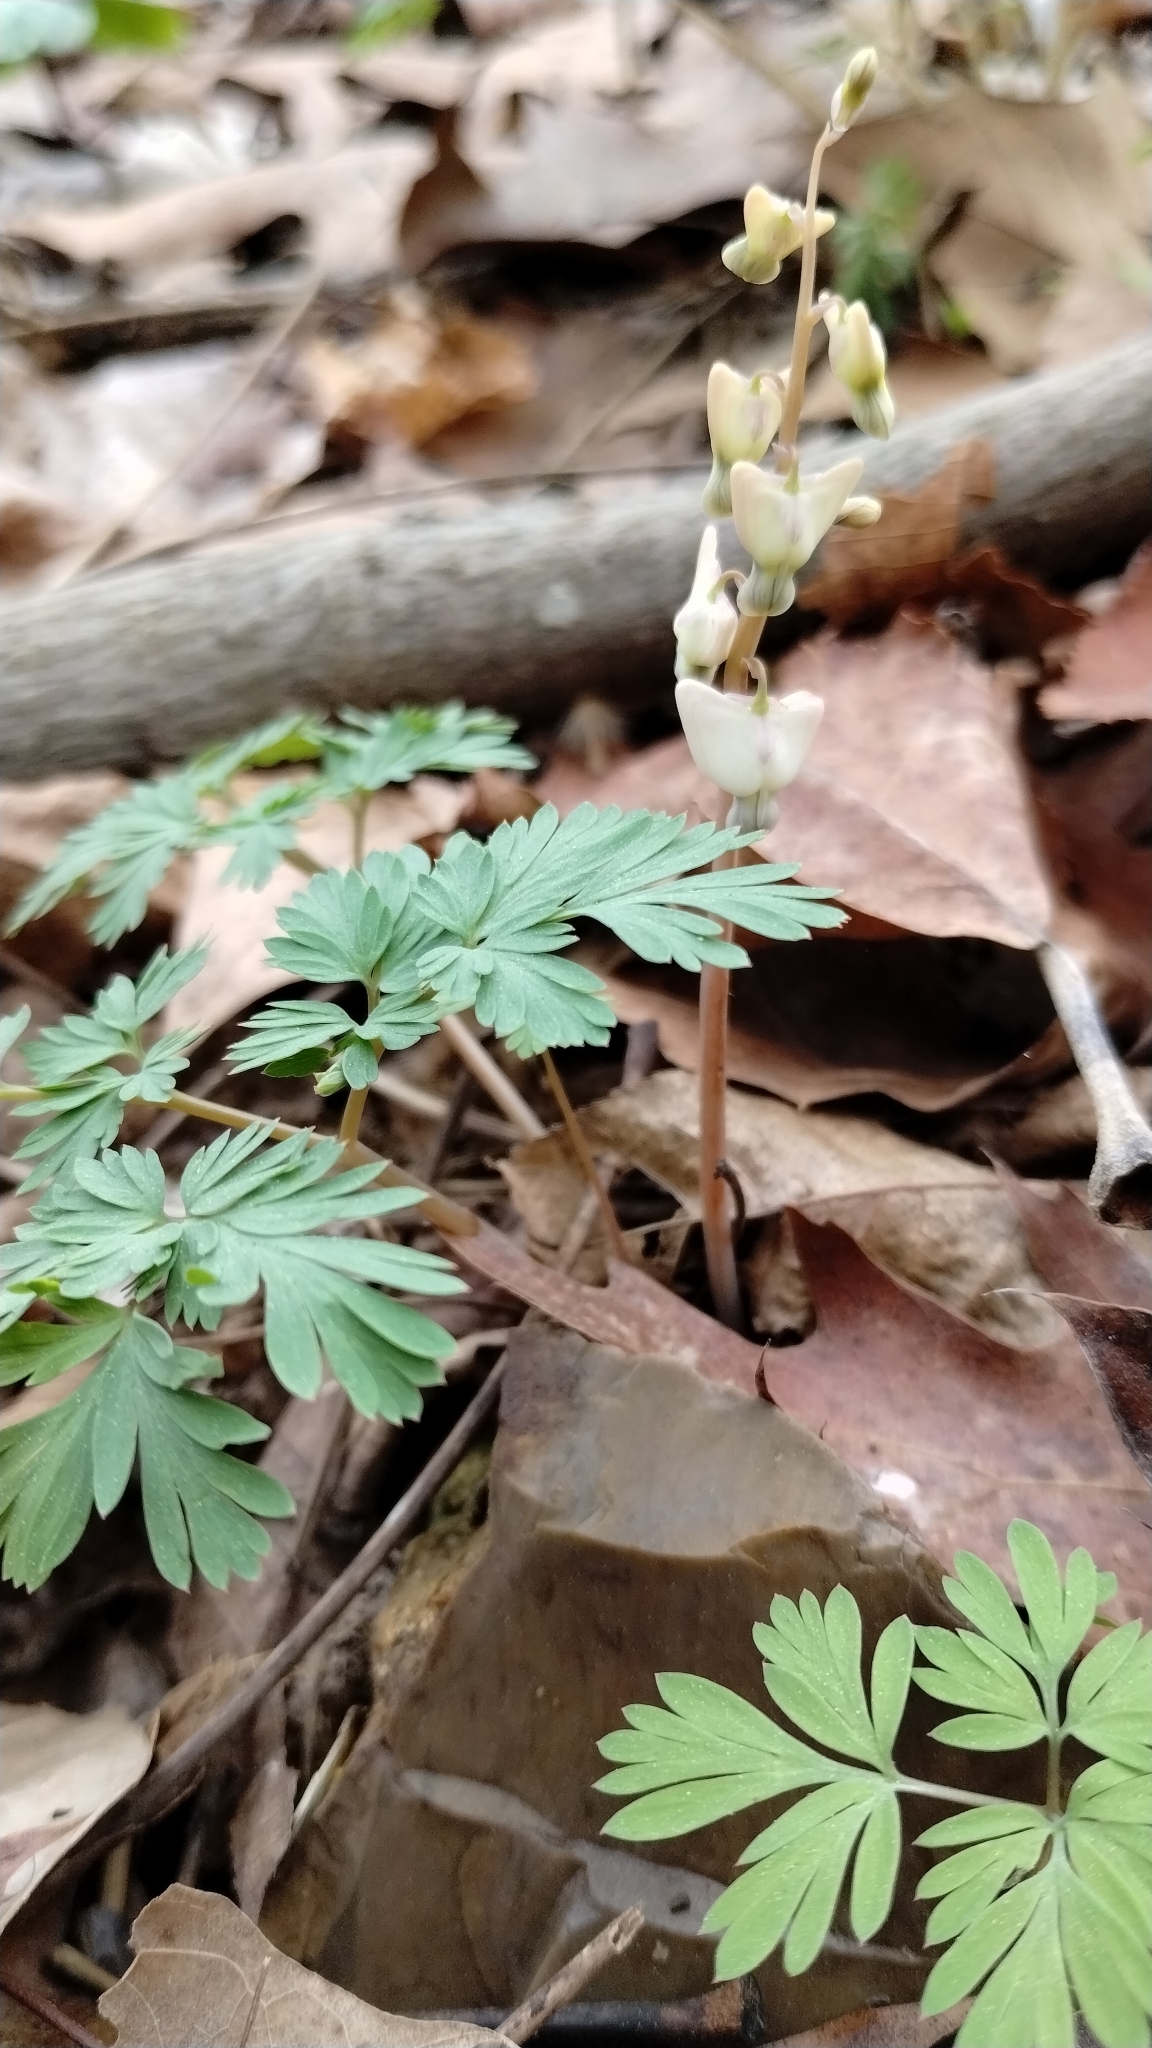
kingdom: Plantae
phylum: Tracheophyta
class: Magnoliopsida
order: Ranunculales
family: Papaveraceae
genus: Dicentra
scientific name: Dicentra cucullaria
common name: Dutchman's breeches
